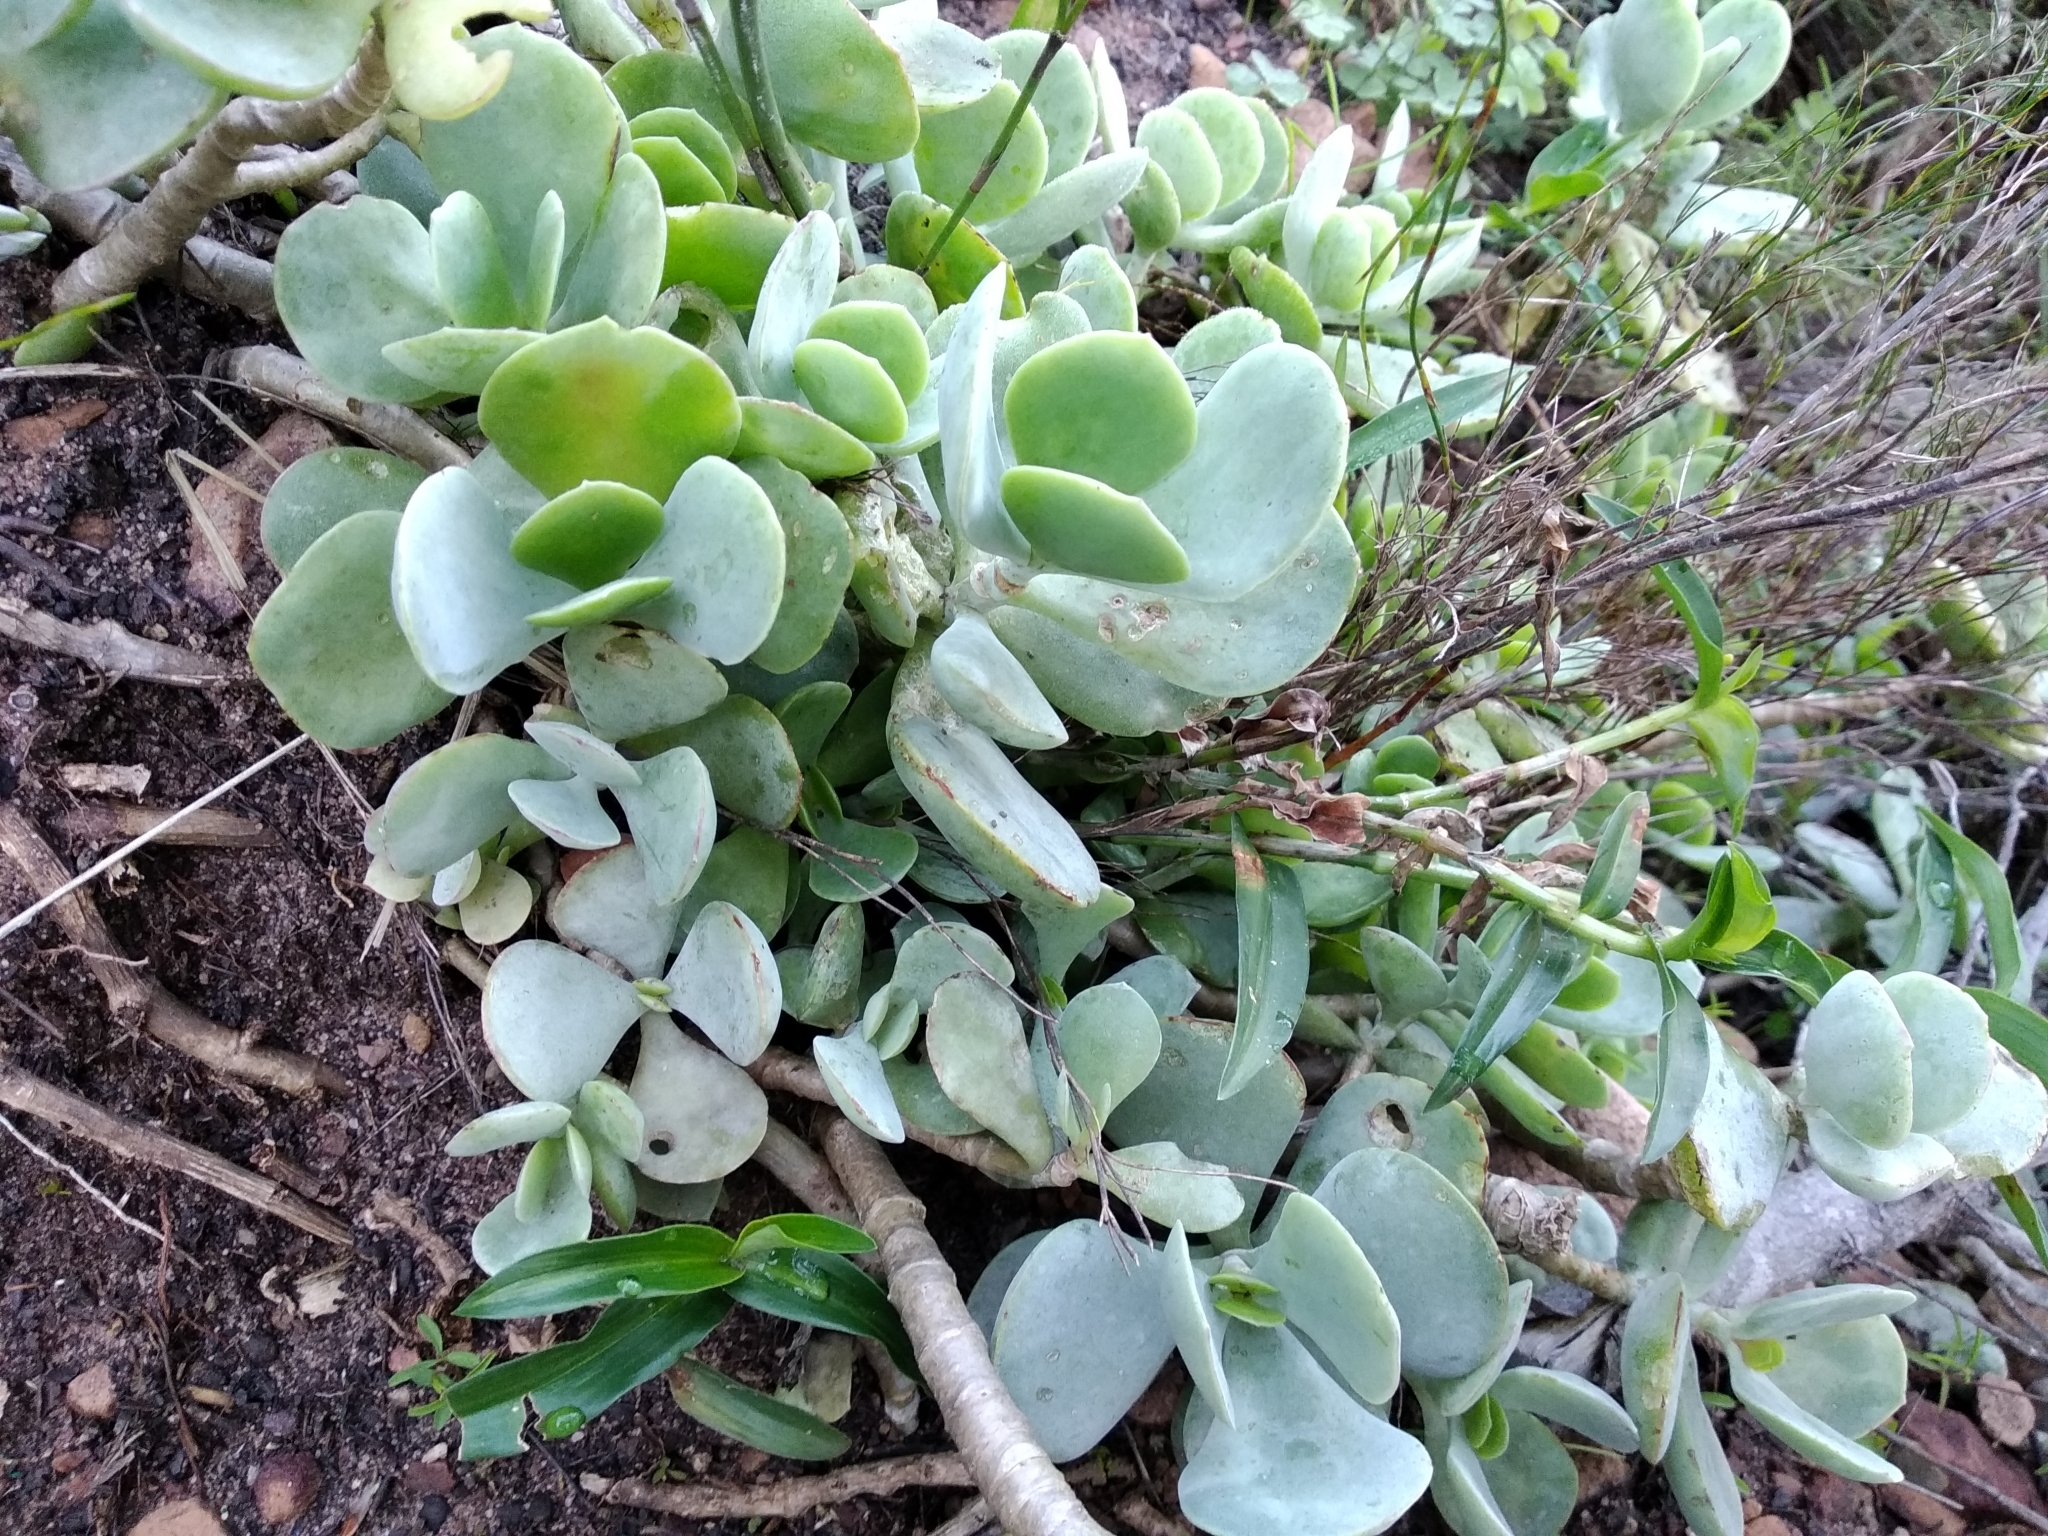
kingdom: Plantae
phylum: Tracheophyta
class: Magnoliopsida
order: Saxifragales
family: Crassulaceae
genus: Cotyledon
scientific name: Cotyledon orbiculata
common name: Pig's ear
